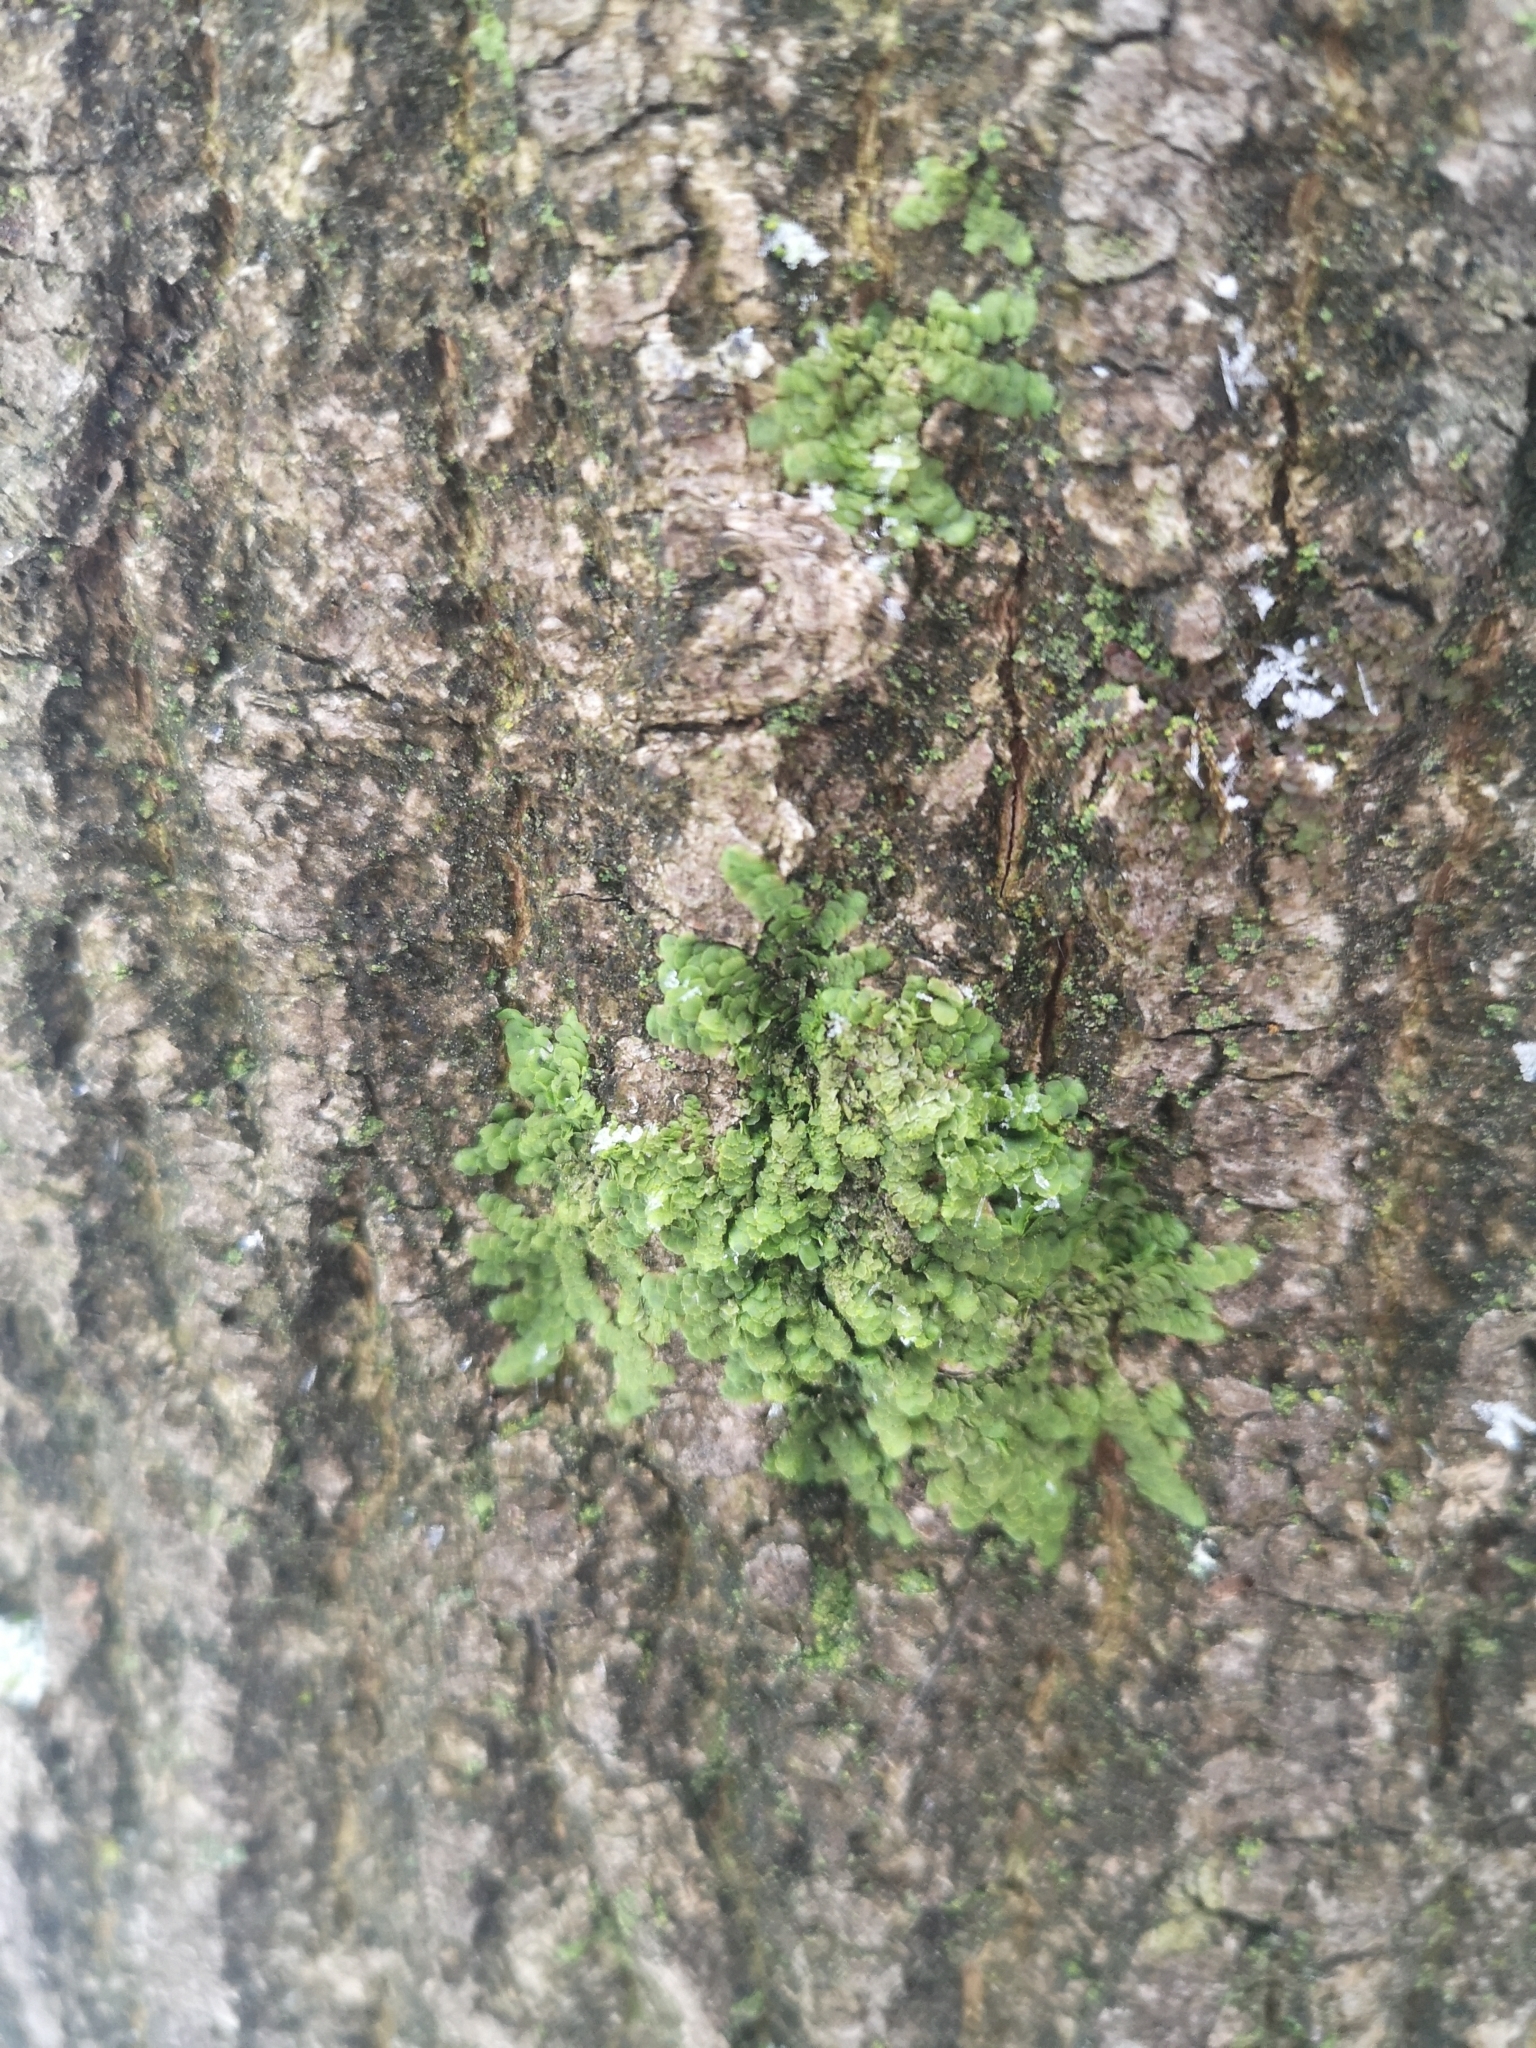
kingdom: Plantae
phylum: Marchantiophyta
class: Jungermanniopsida
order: Porellales
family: Radulaceae
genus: Radula
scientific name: Radula complanata
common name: Flat-leaved scalewort
